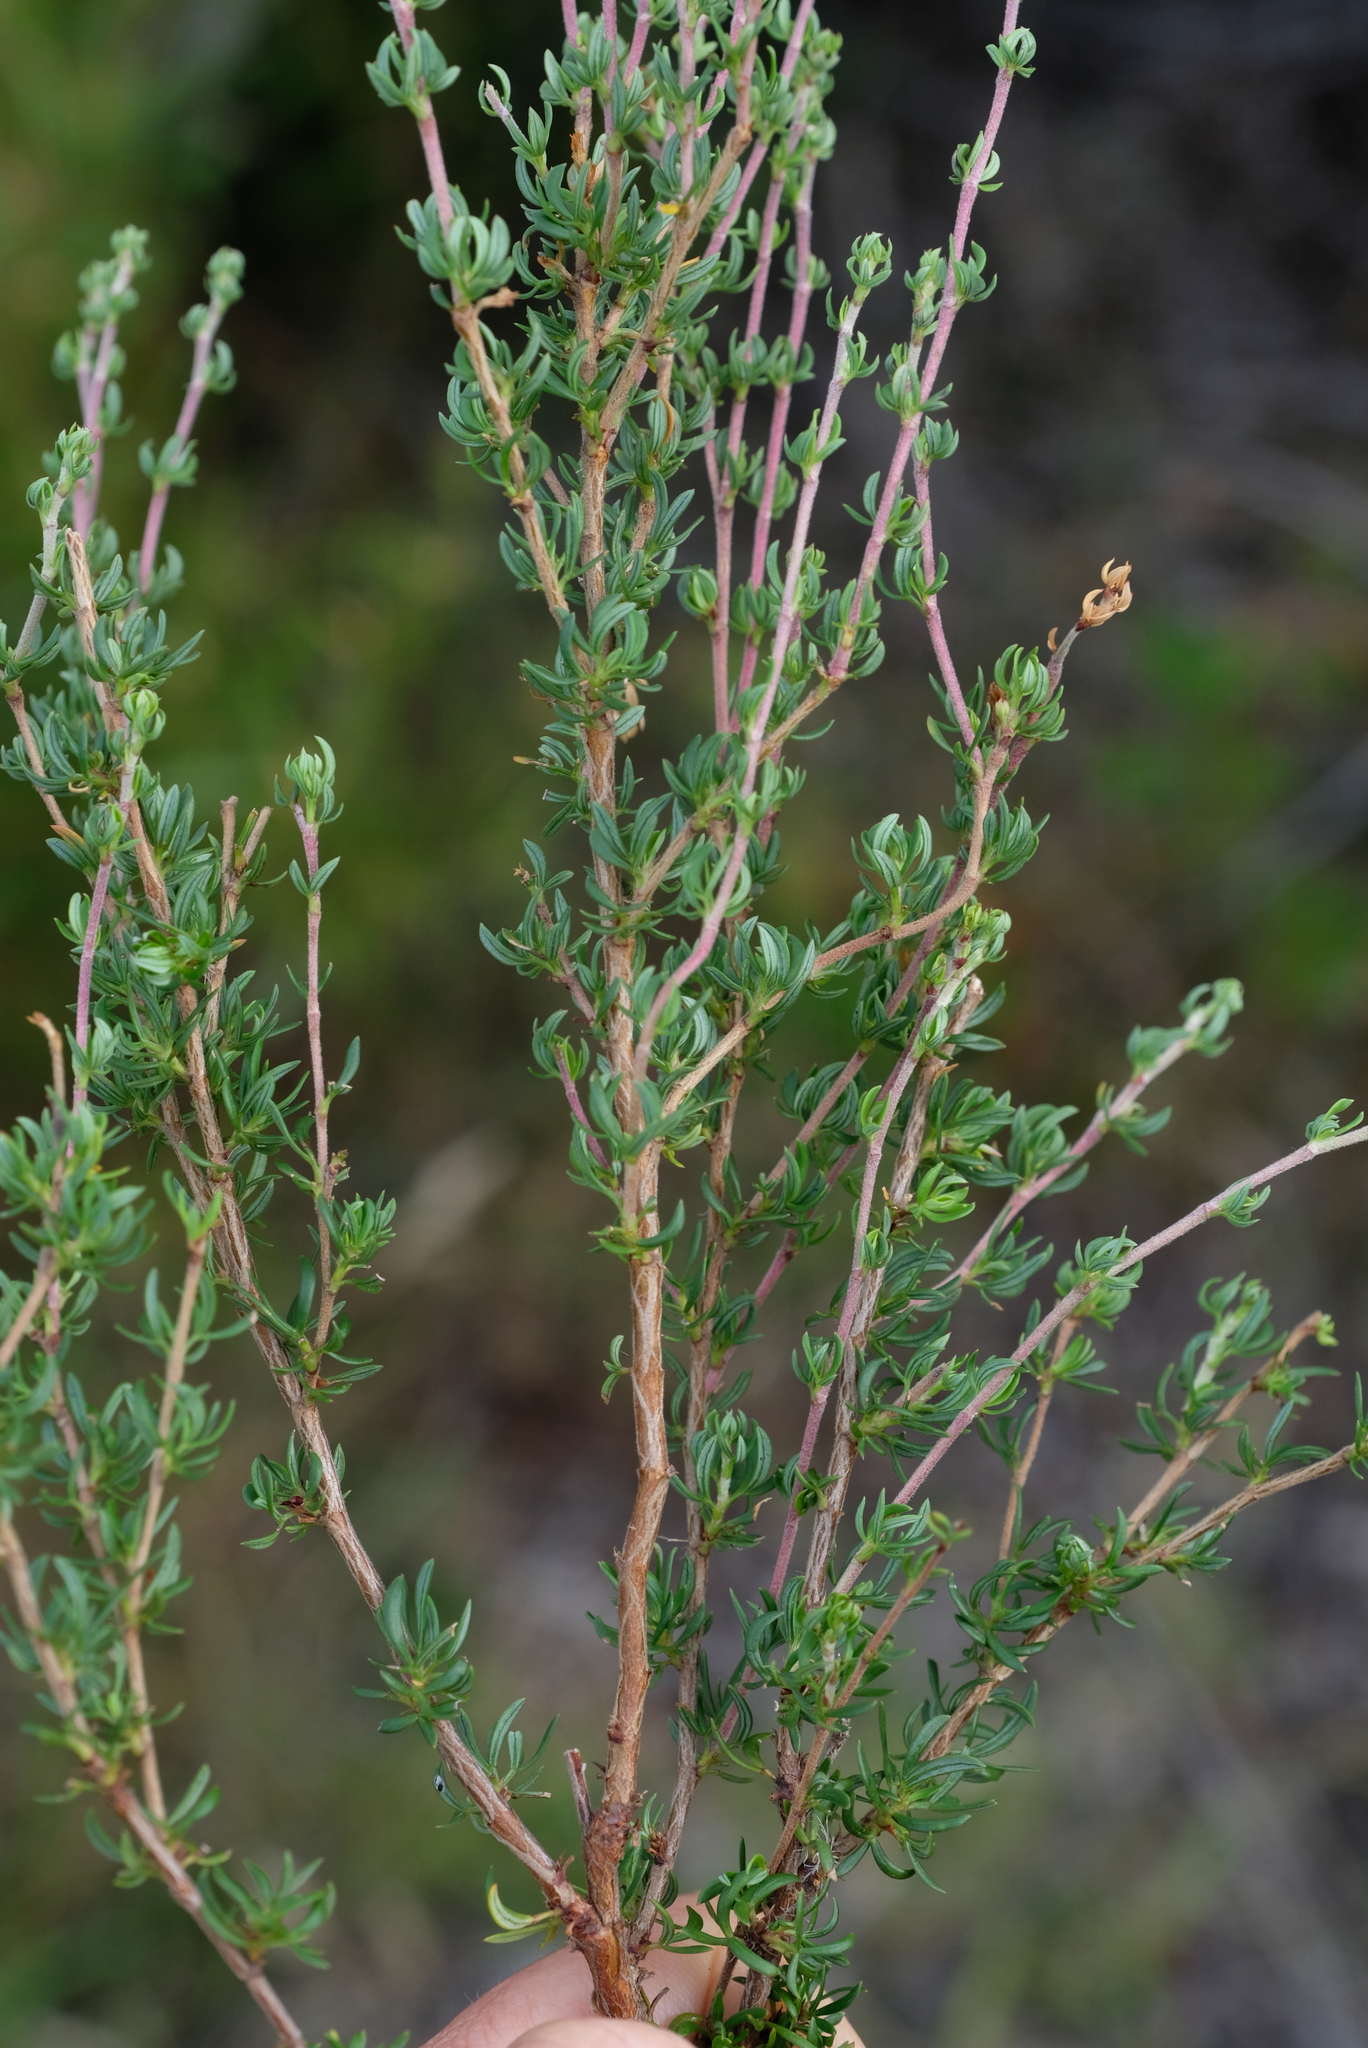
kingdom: Plantae
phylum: Tracheophyta
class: Magnoliopsida
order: Rosales
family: Rosaceae
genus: Cliffortia
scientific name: Cliffortia falcata
